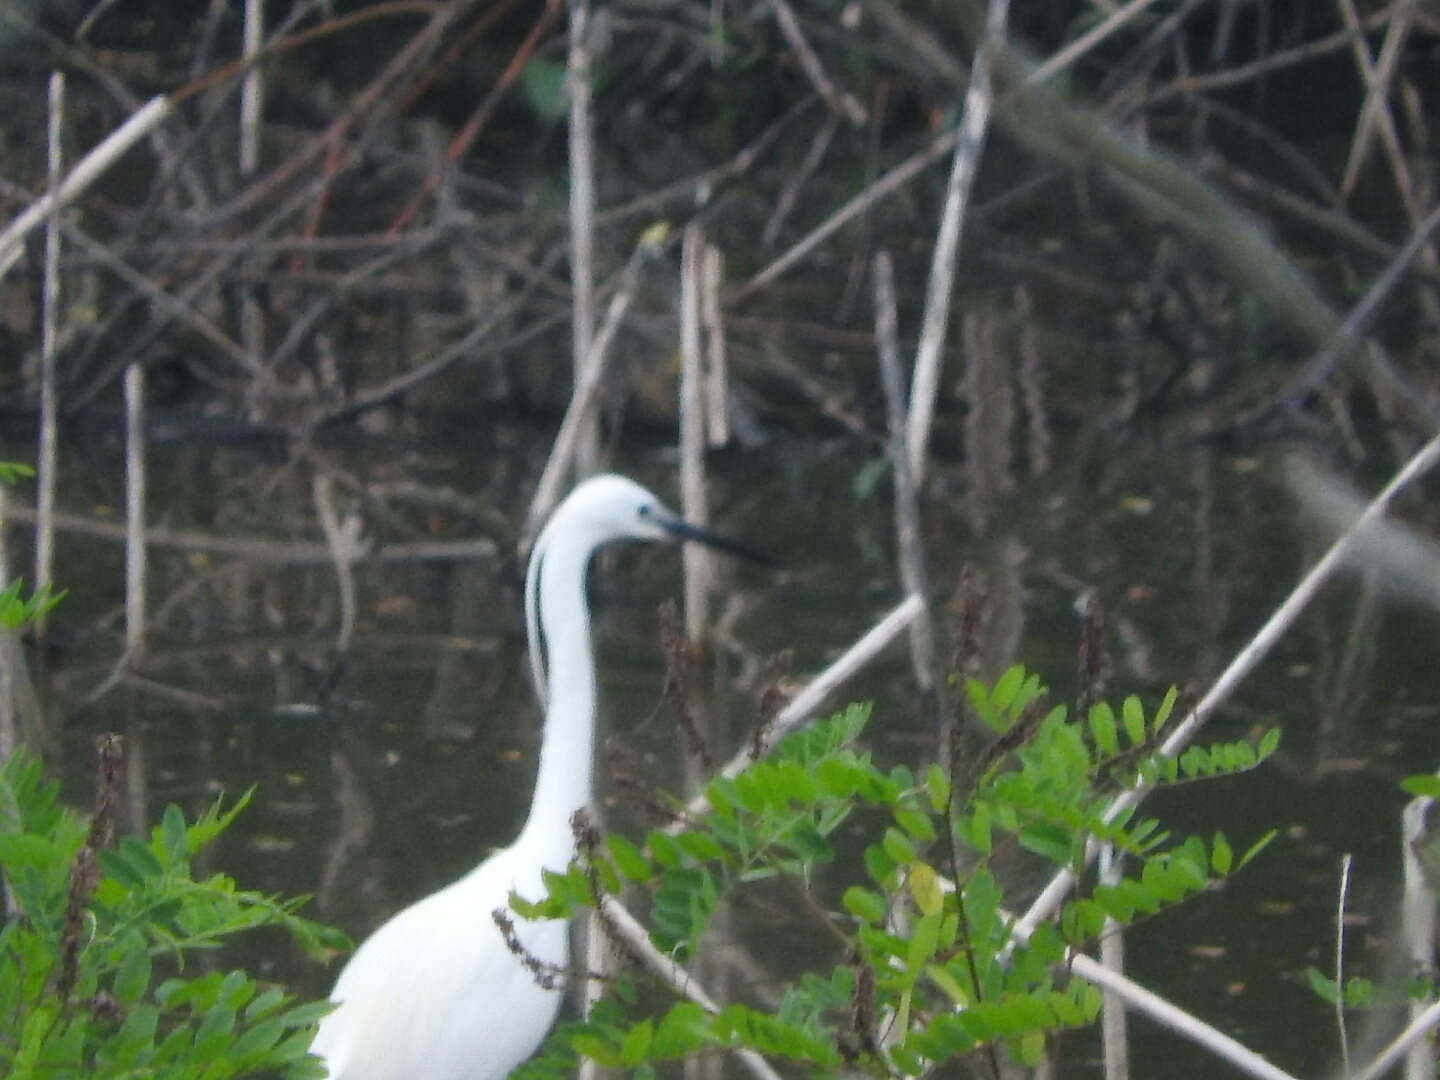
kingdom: Animalia
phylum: Chordata
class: Aves
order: Pelecaniformes
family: Ardeidae
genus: Egretta
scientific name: Egretta garzetta
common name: Little egret
